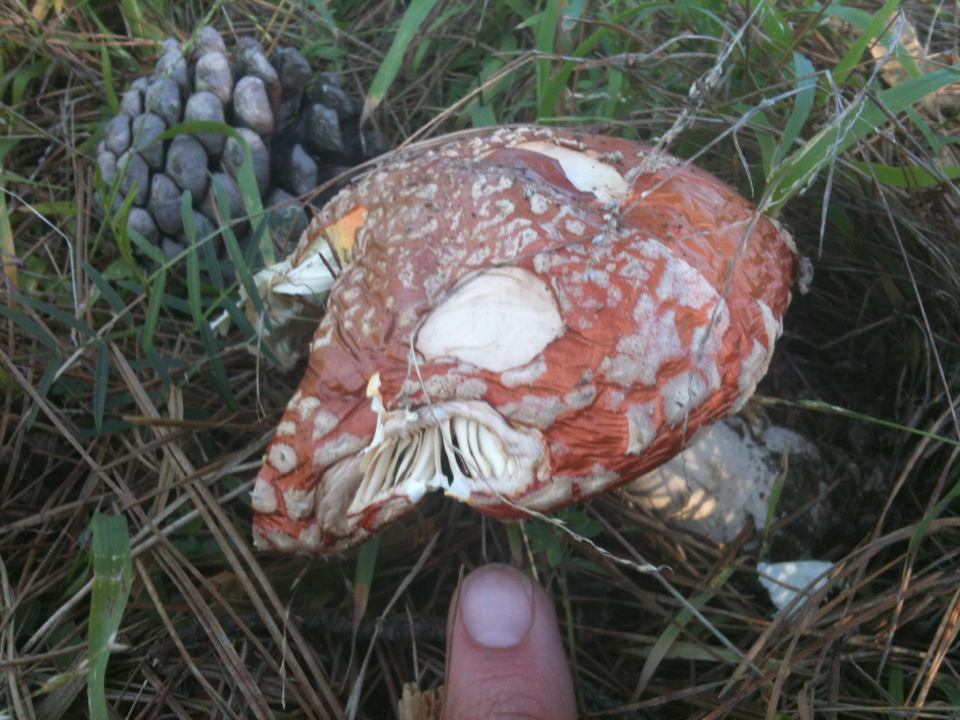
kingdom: Fungi
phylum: Basidiomycota
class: Agaricomycetes
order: Agaricales
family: Amanitaceae
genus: Amanita
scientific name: Amanita muscaria
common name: Fly agaric
